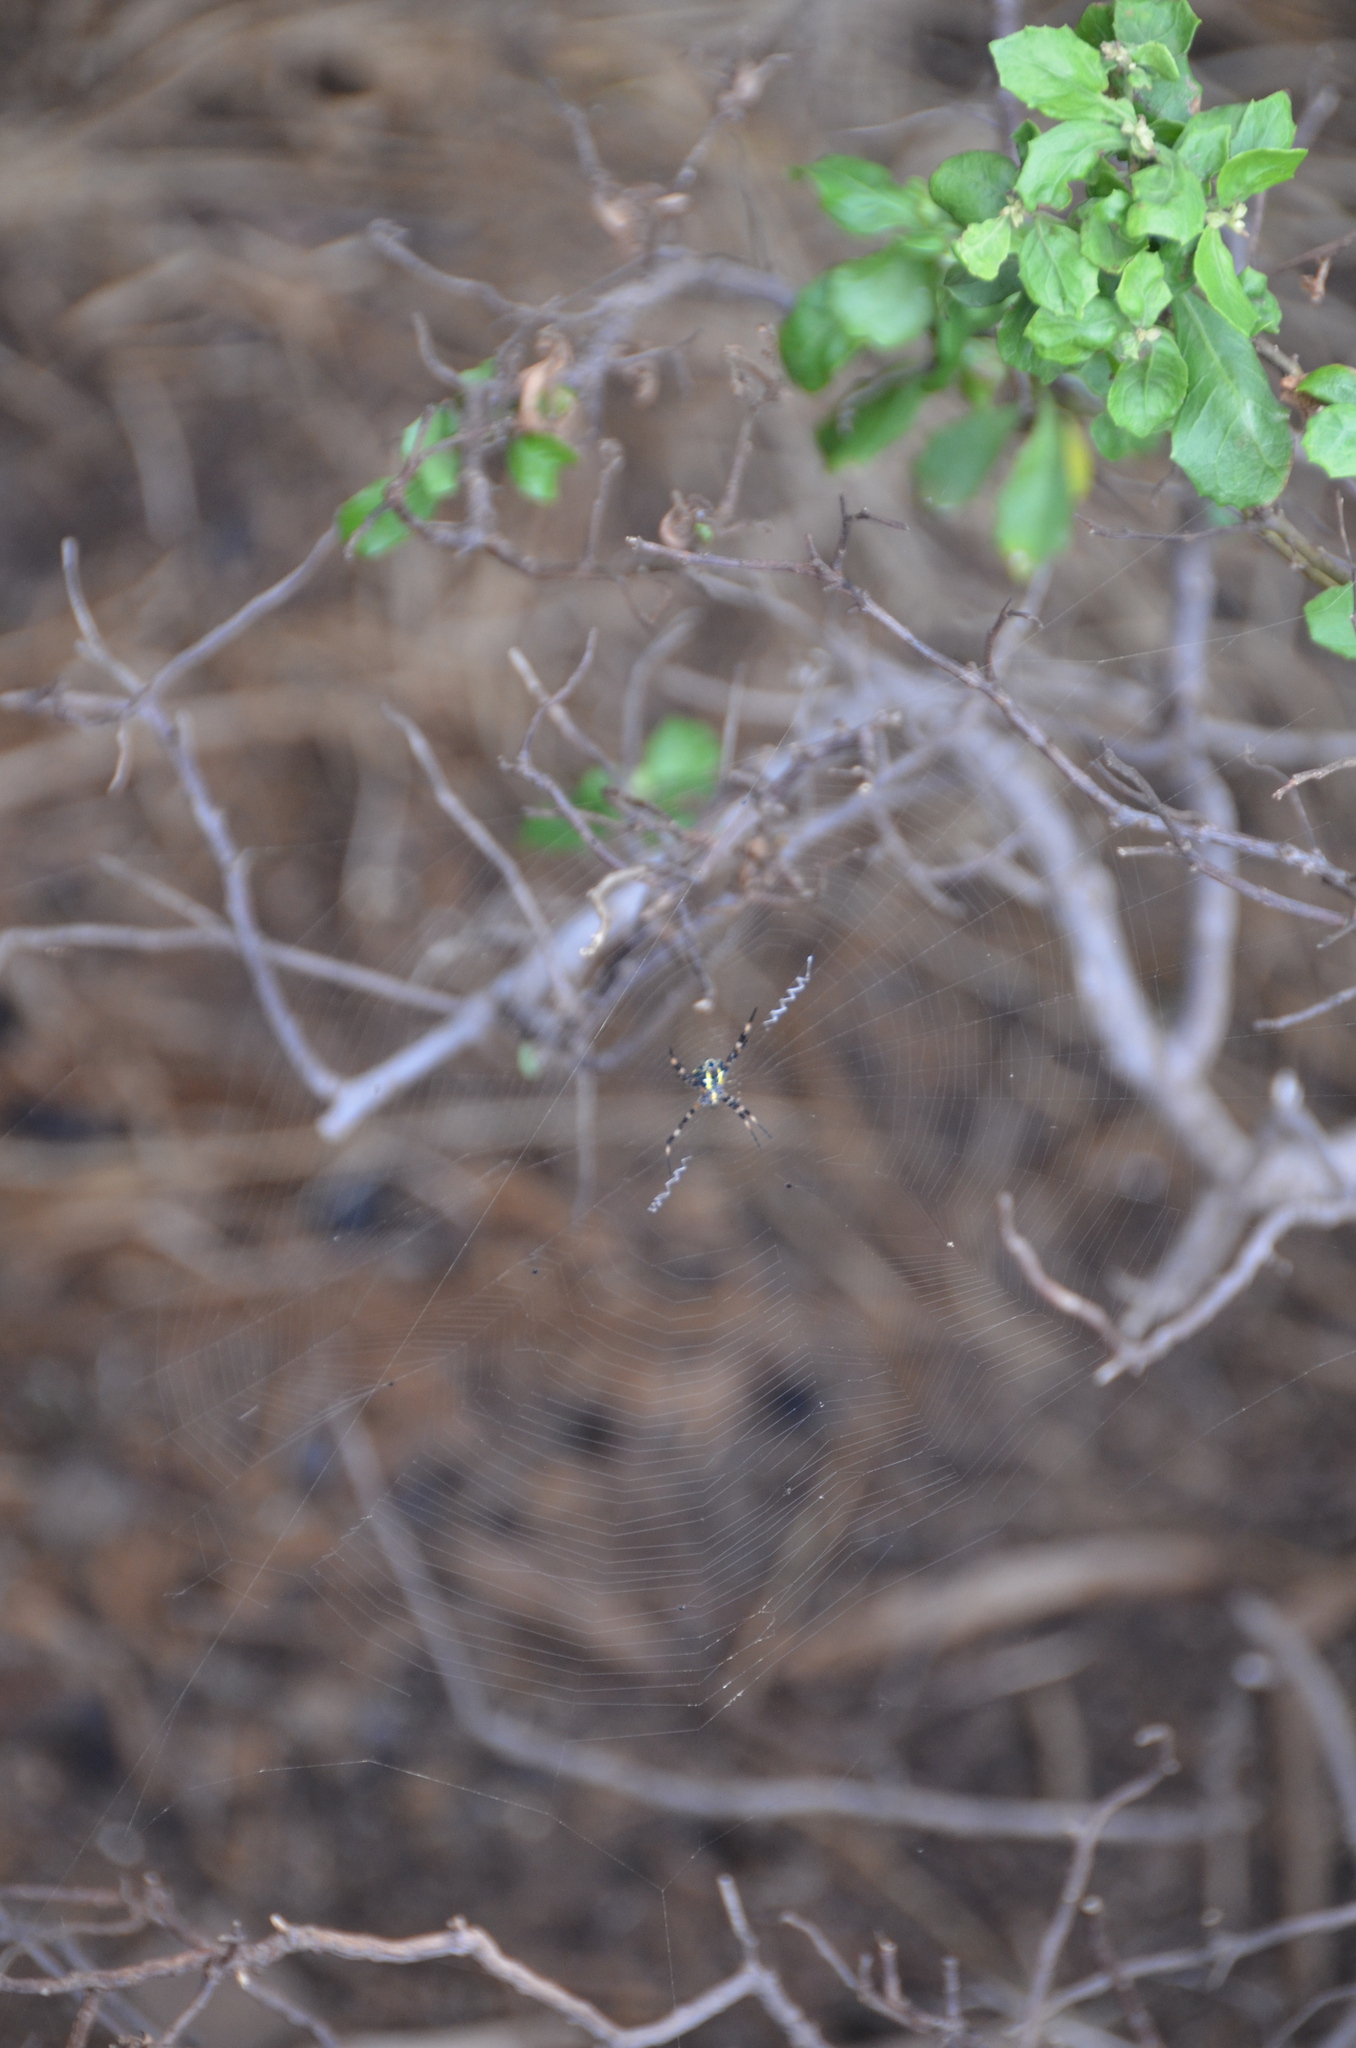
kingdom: Animalia
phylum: Arthropoda
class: Arachnida
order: Araneae
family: Araneidae
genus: Argiope
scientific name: Argiope appensa
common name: Garden spider
